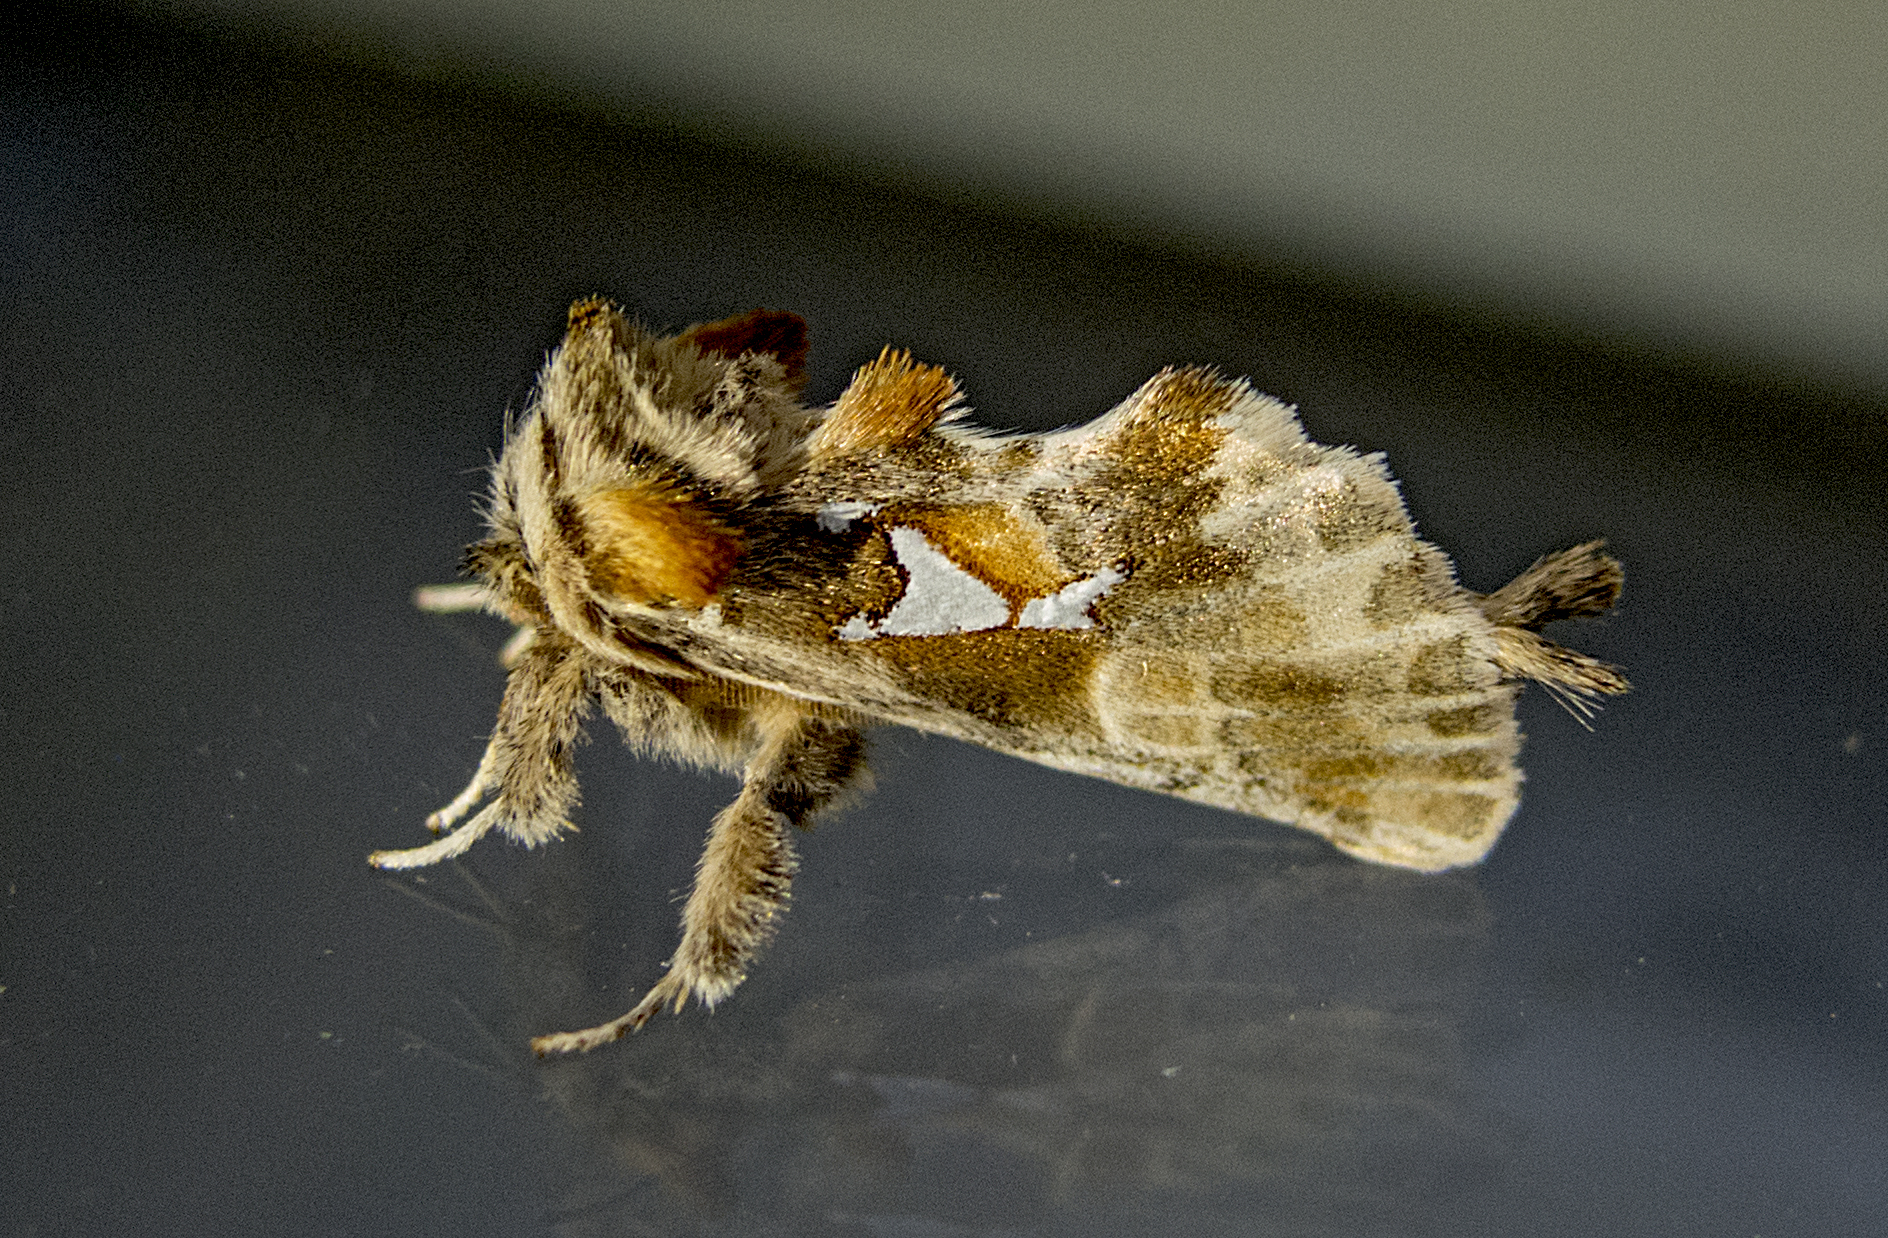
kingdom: Animalia
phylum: Arthropoda
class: Insecta
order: Lepidoptera
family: Notodontidae
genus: Spatalia
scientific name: Spatalia argentina
